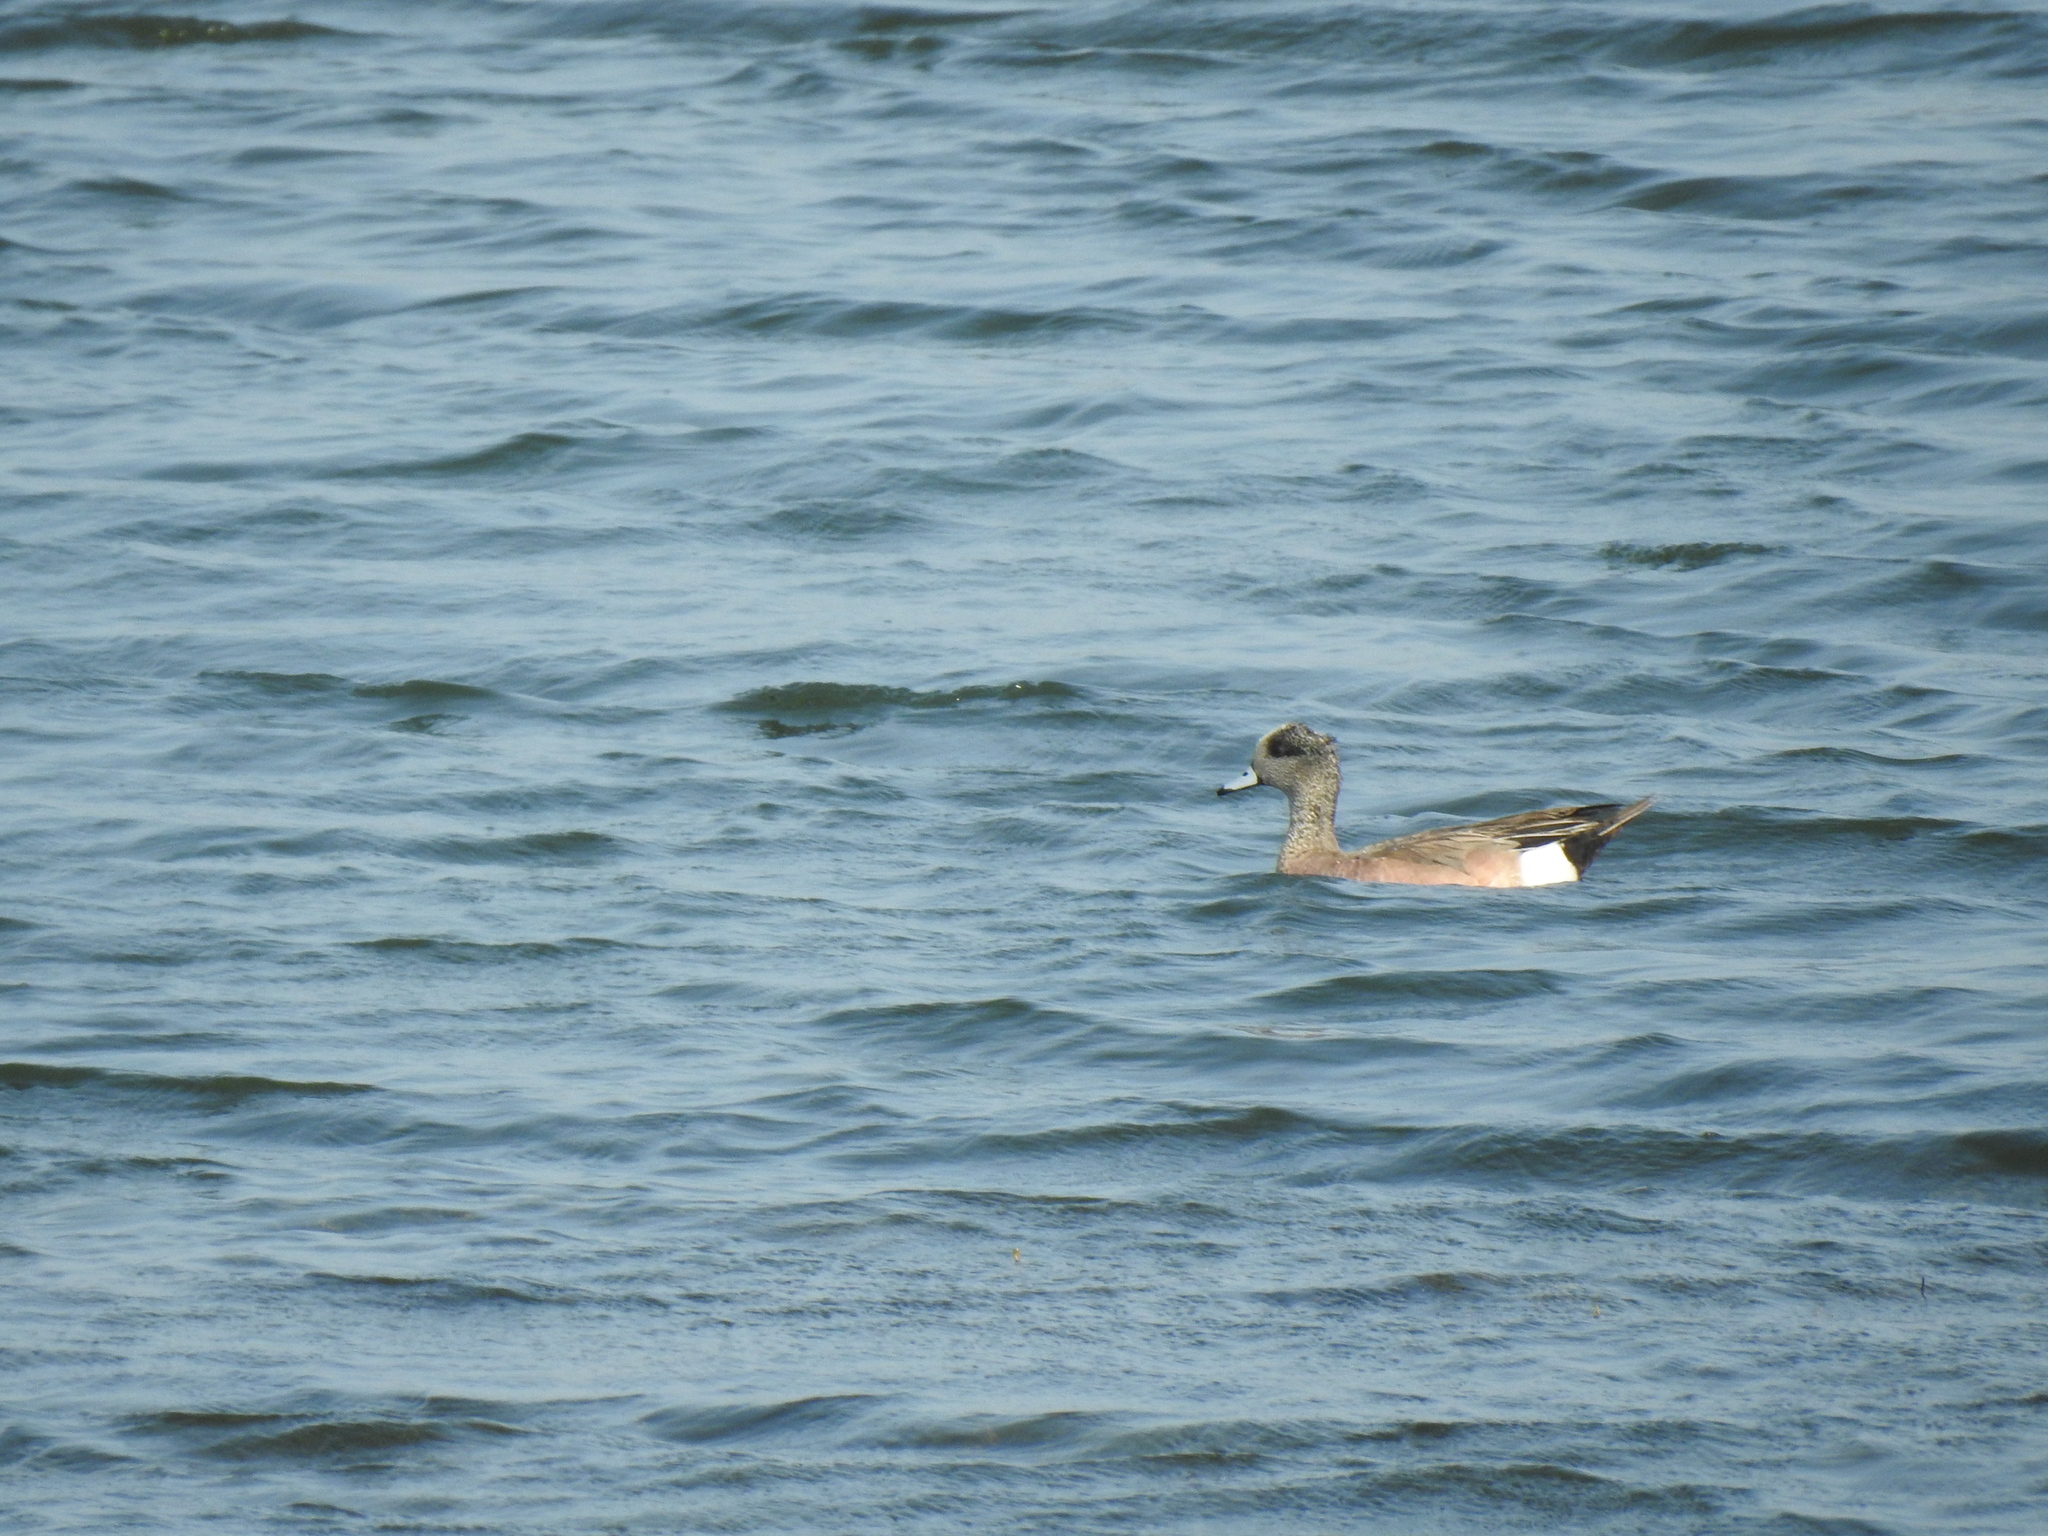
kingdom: Animalia
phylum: Chordata
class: Aves
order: Anseriformes
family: Anatidae
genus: Mareca
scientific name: Mareca americana
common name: American wigeon
